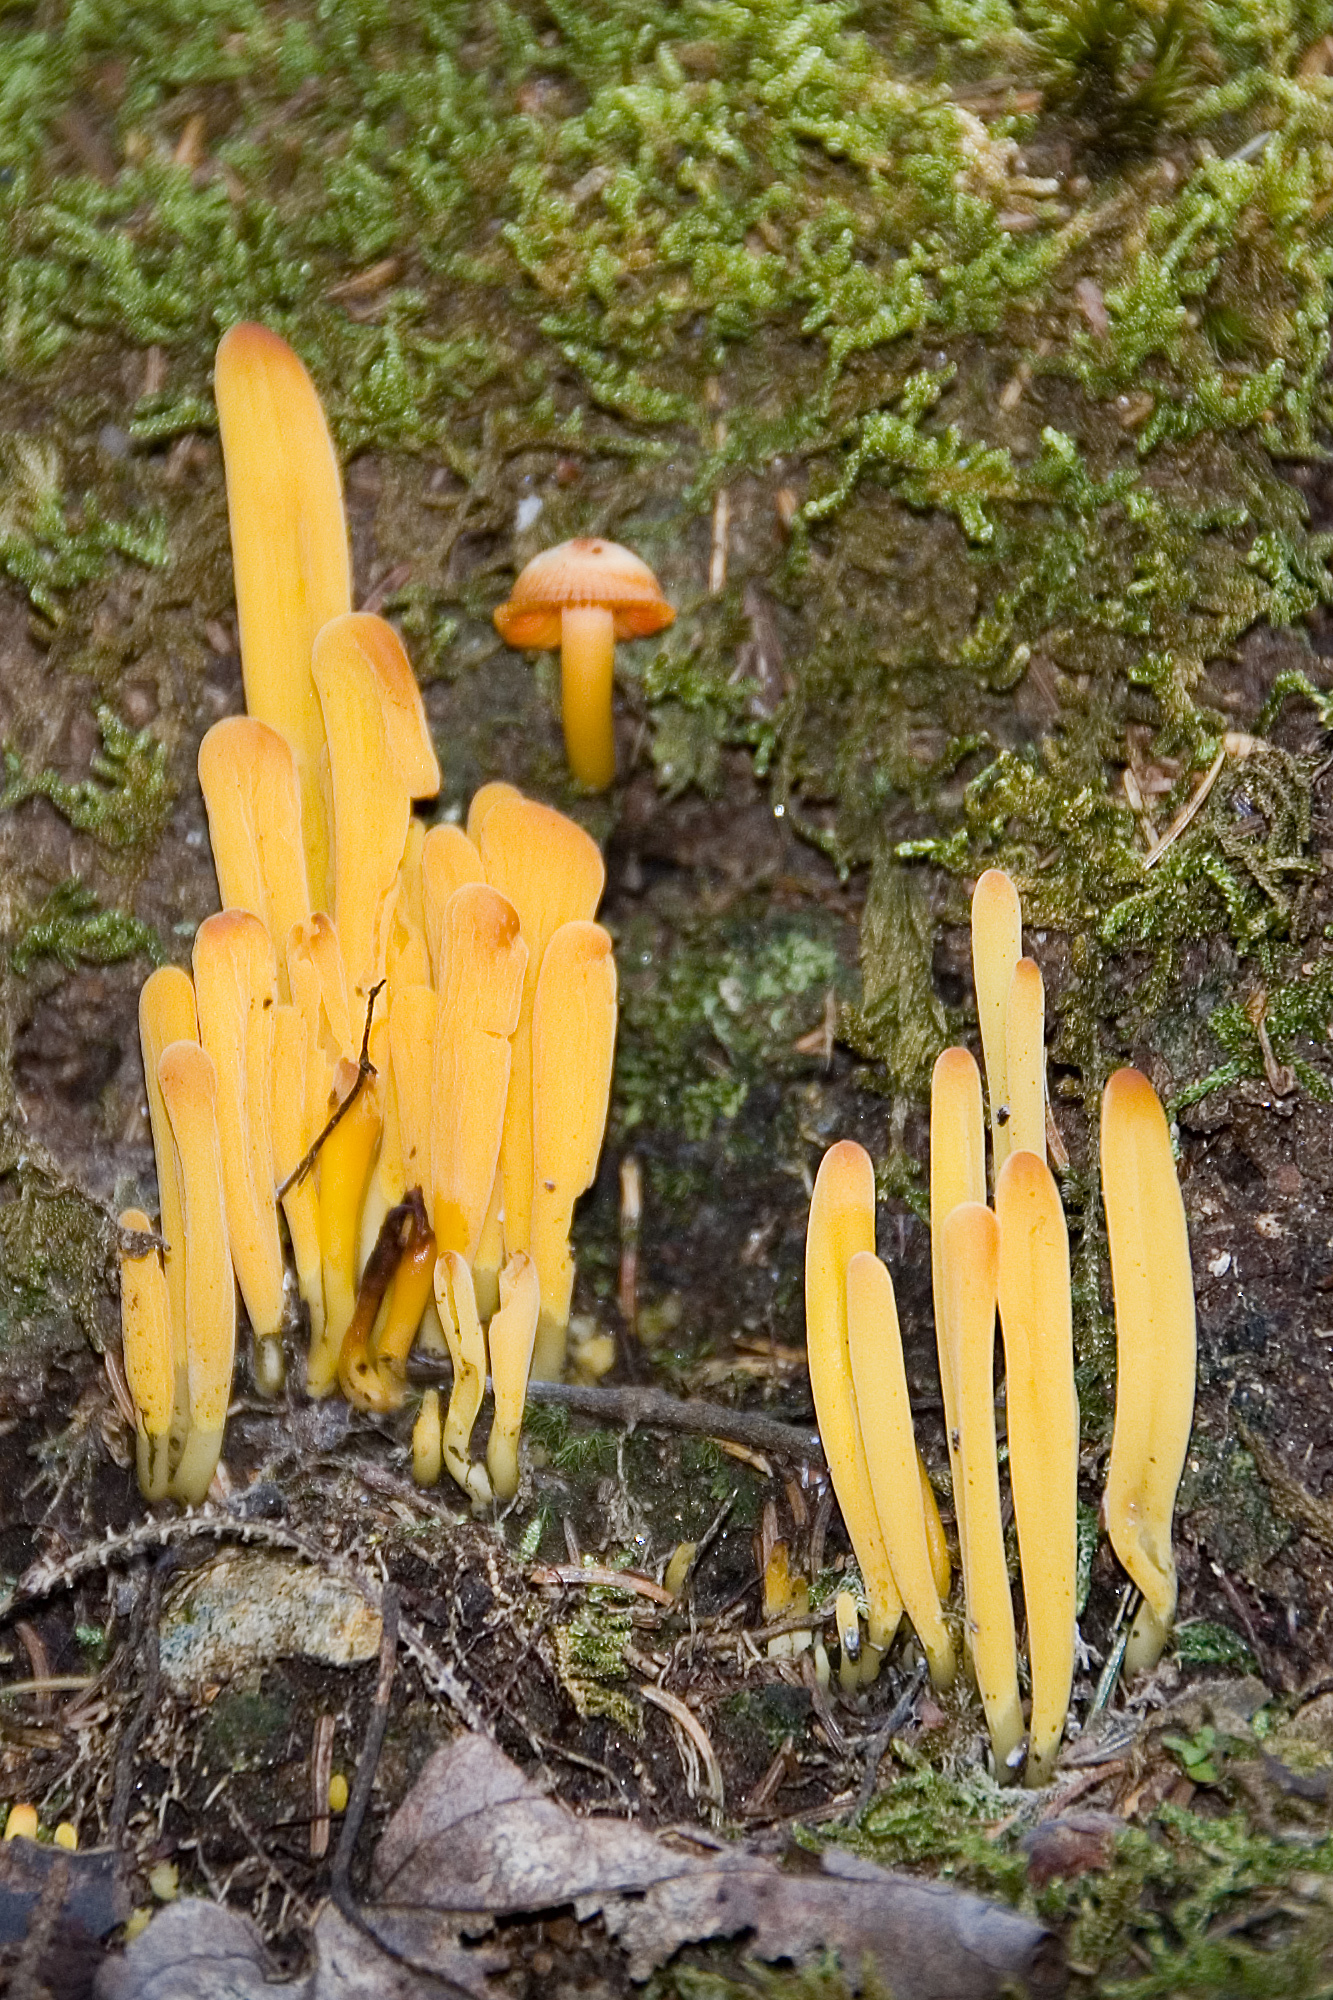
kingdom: Fungi
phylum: Basidiomycota
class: Agaricomycetes
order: Agaricales
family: Clavariaceae
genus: Clavulinopsis
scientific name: Clavulinopsis fusiformis
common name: Golden spindles
